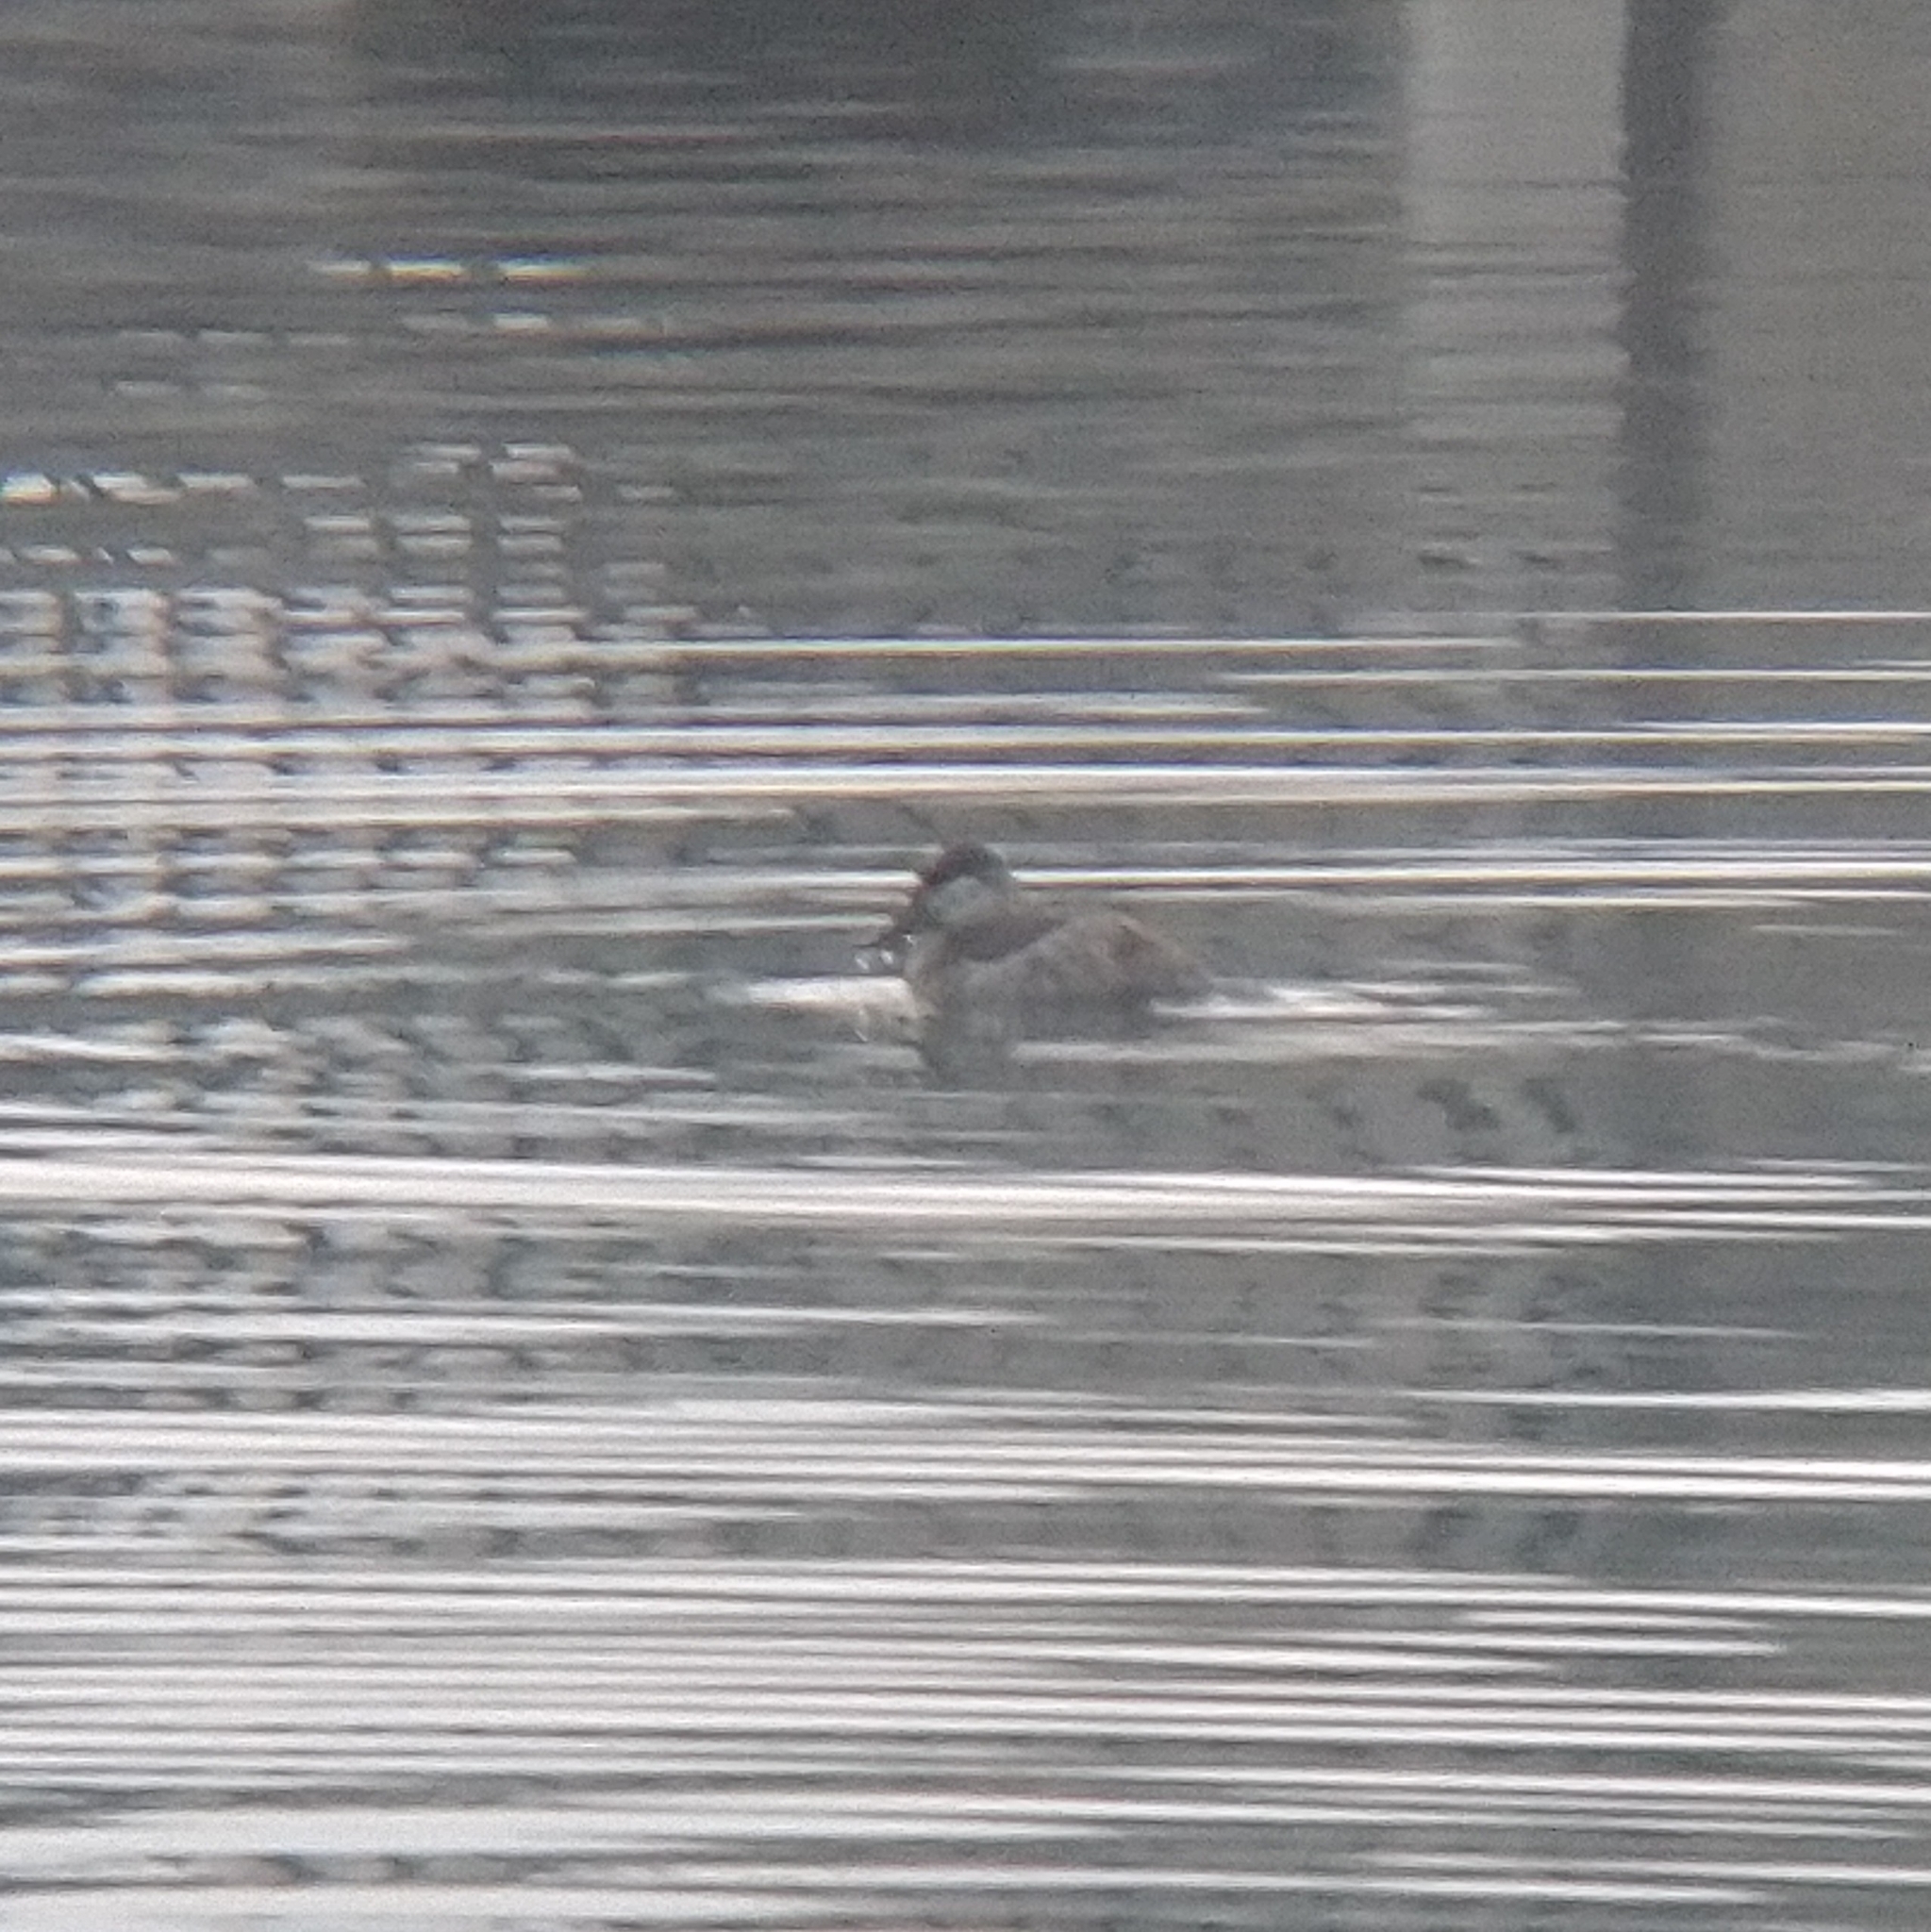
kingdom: Animalia
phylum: Chordata
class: Aves
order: Anseriformes
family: Anatidae
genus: Oxyura
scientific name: Oxyura jamaicensis
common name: Ruddy duck
